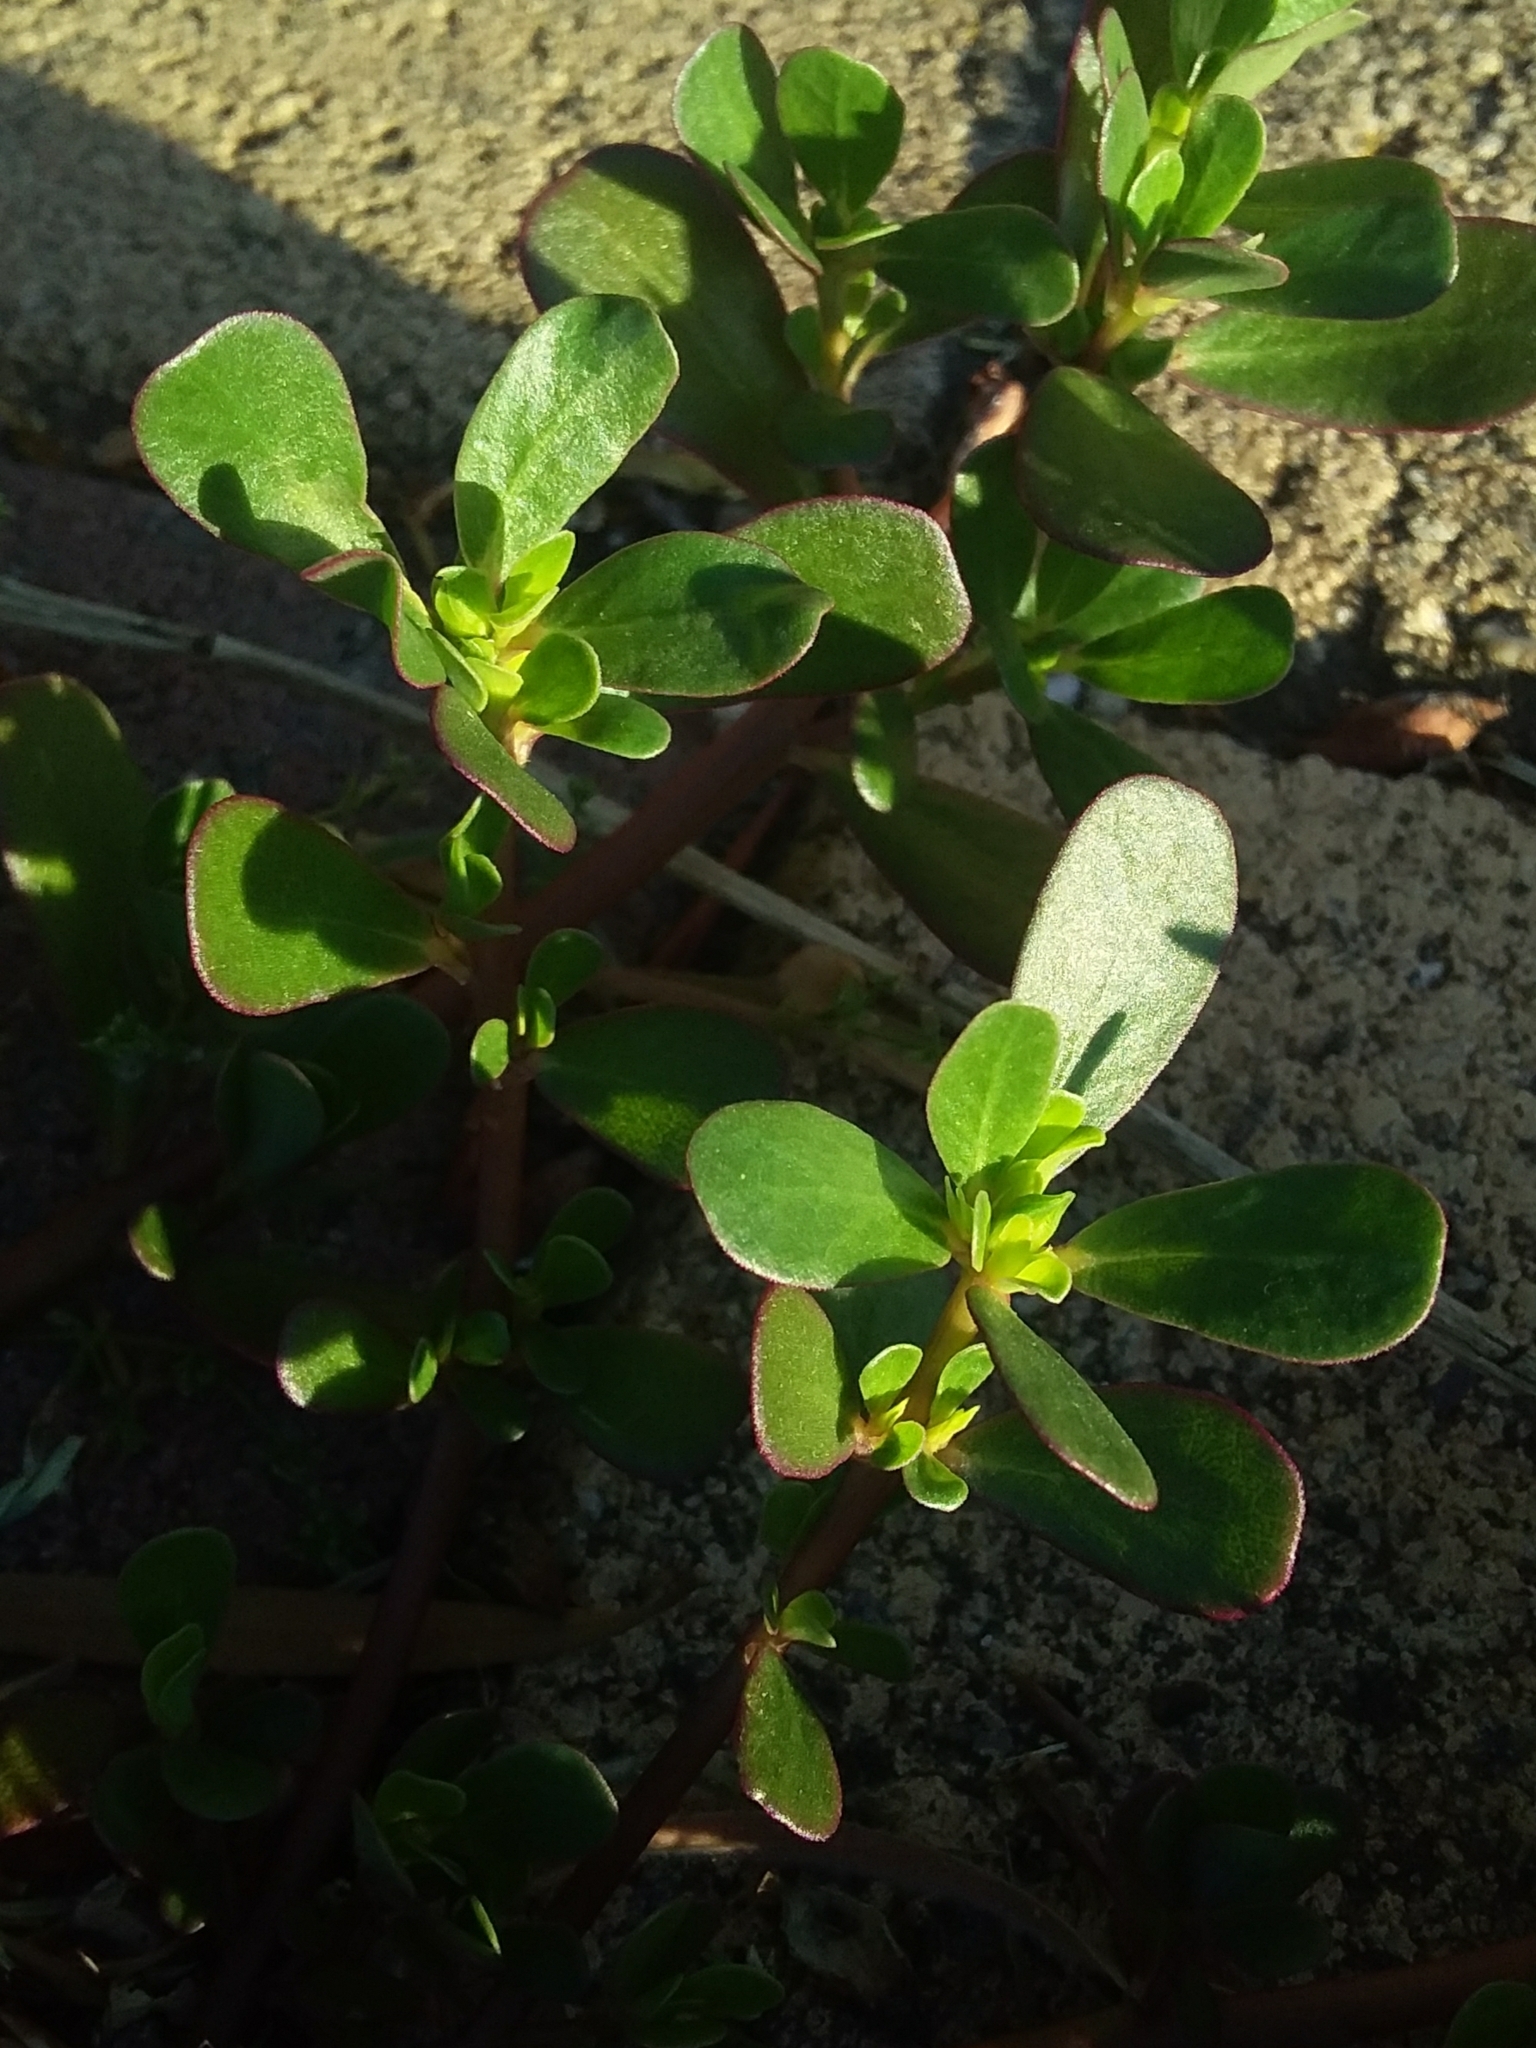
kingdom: Plantae
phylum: Tracheophyta
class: Magnoliopsida
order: Caryophyllales
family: Portulacaceae
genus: Portulaca
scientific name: Portulaca oleracea
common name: Common purslane
